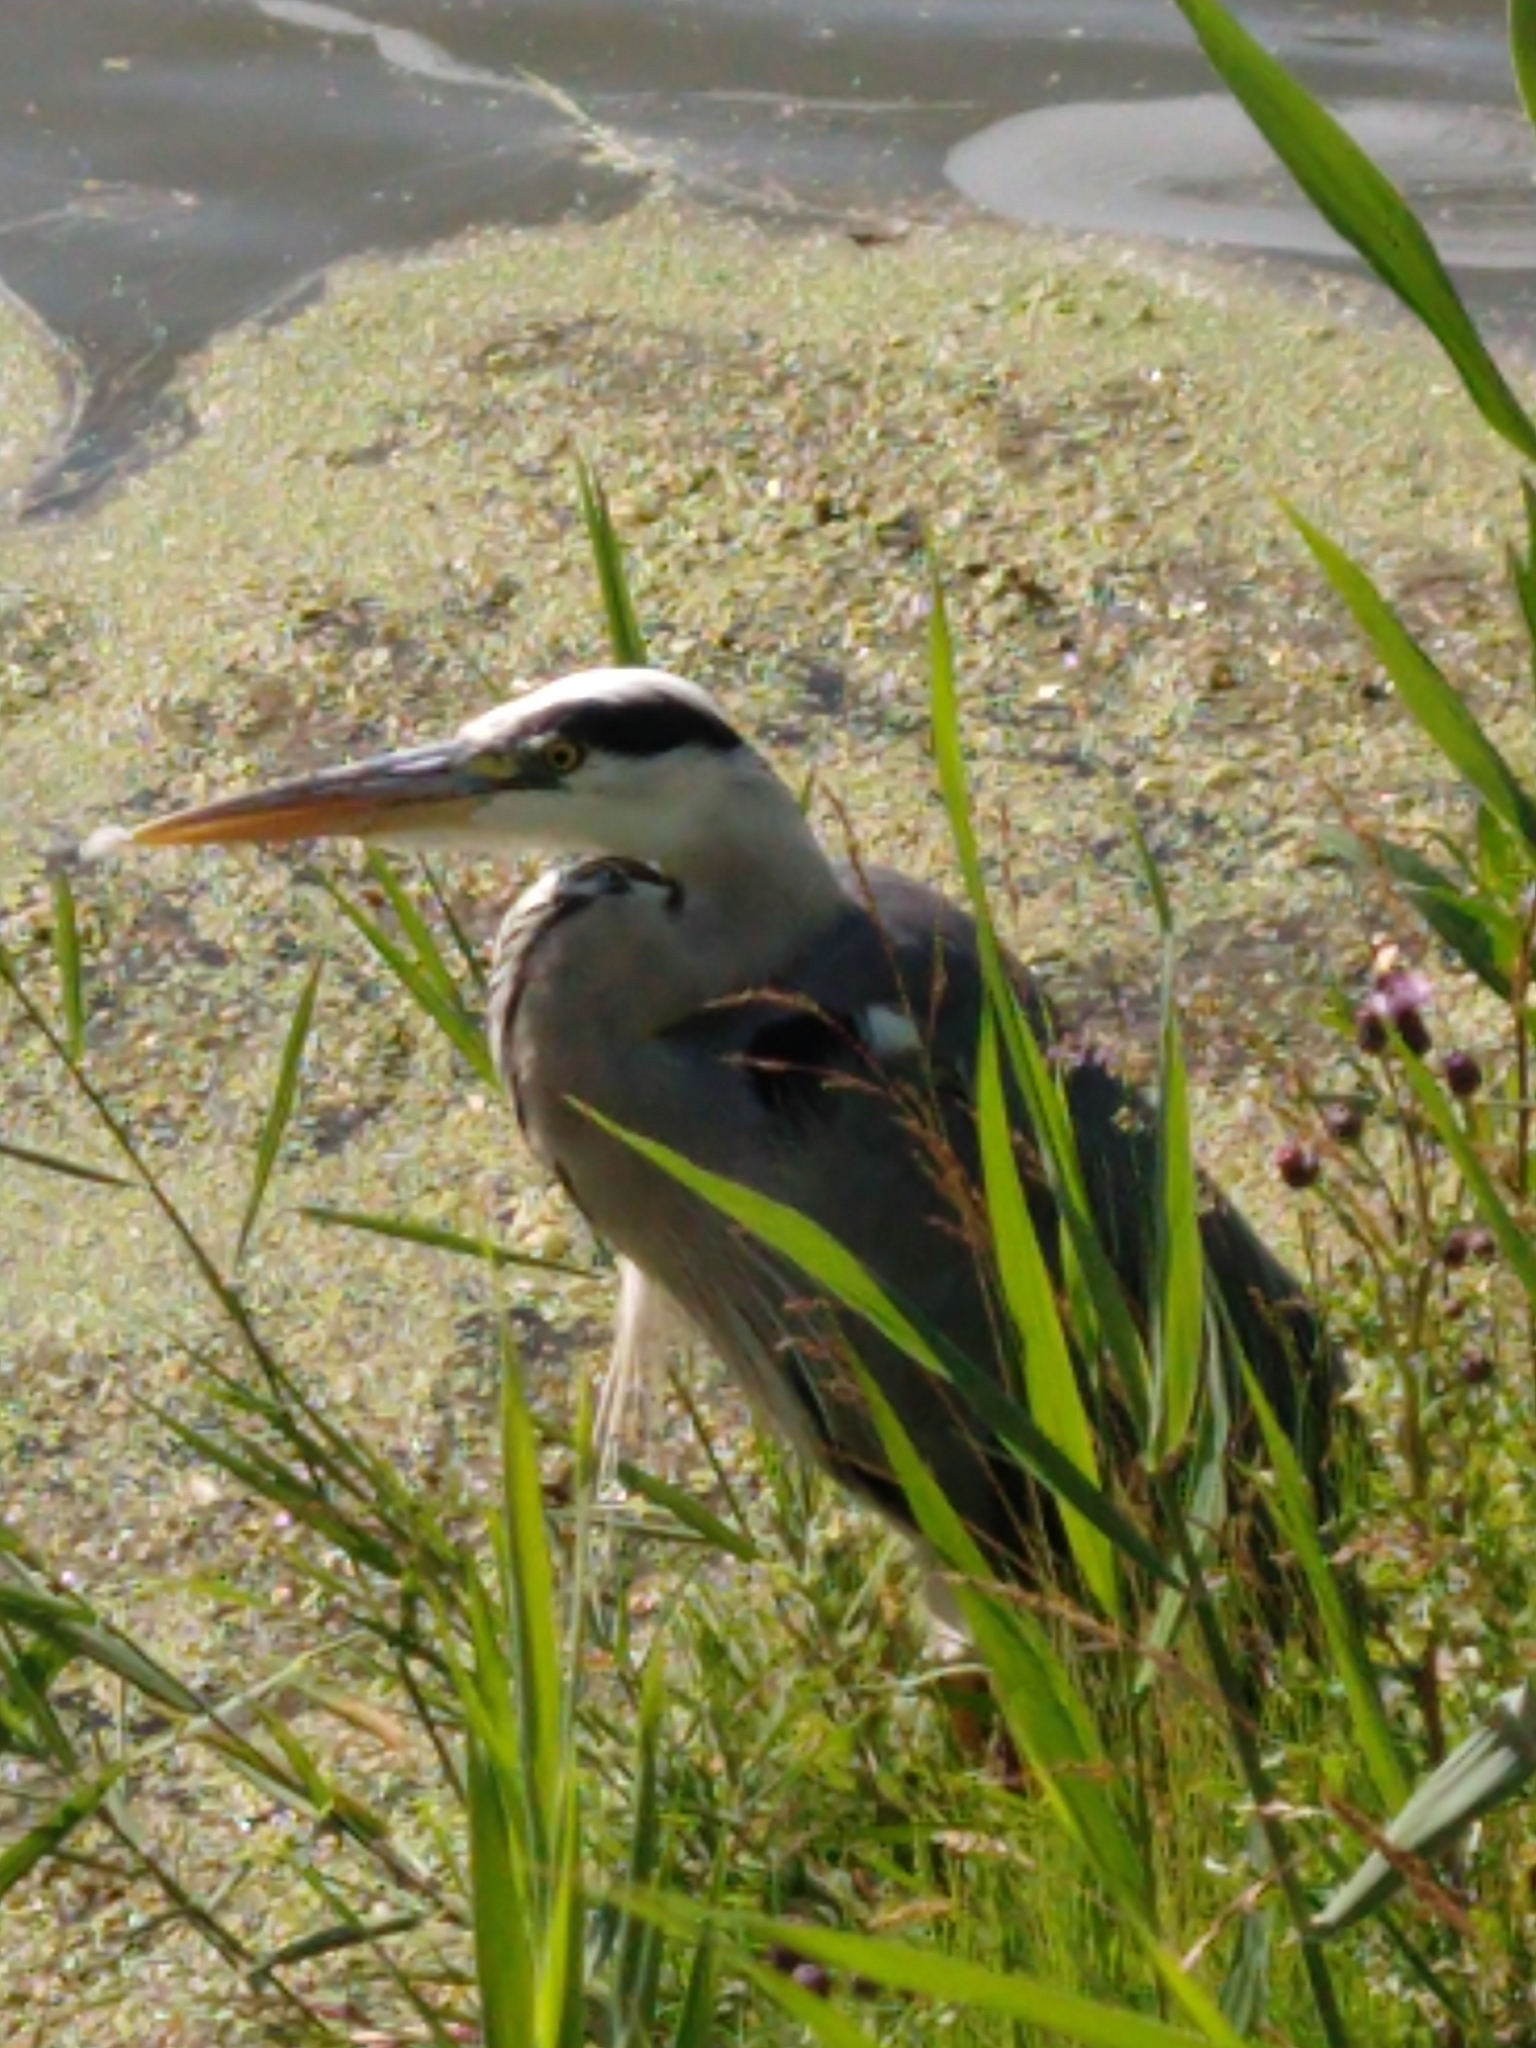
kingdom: Animalia
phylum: Chordata
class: Aves
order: Pelecaniformes
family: Ardeidae
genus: Ardea
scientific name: Ardea cinerea
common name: Grey heron
